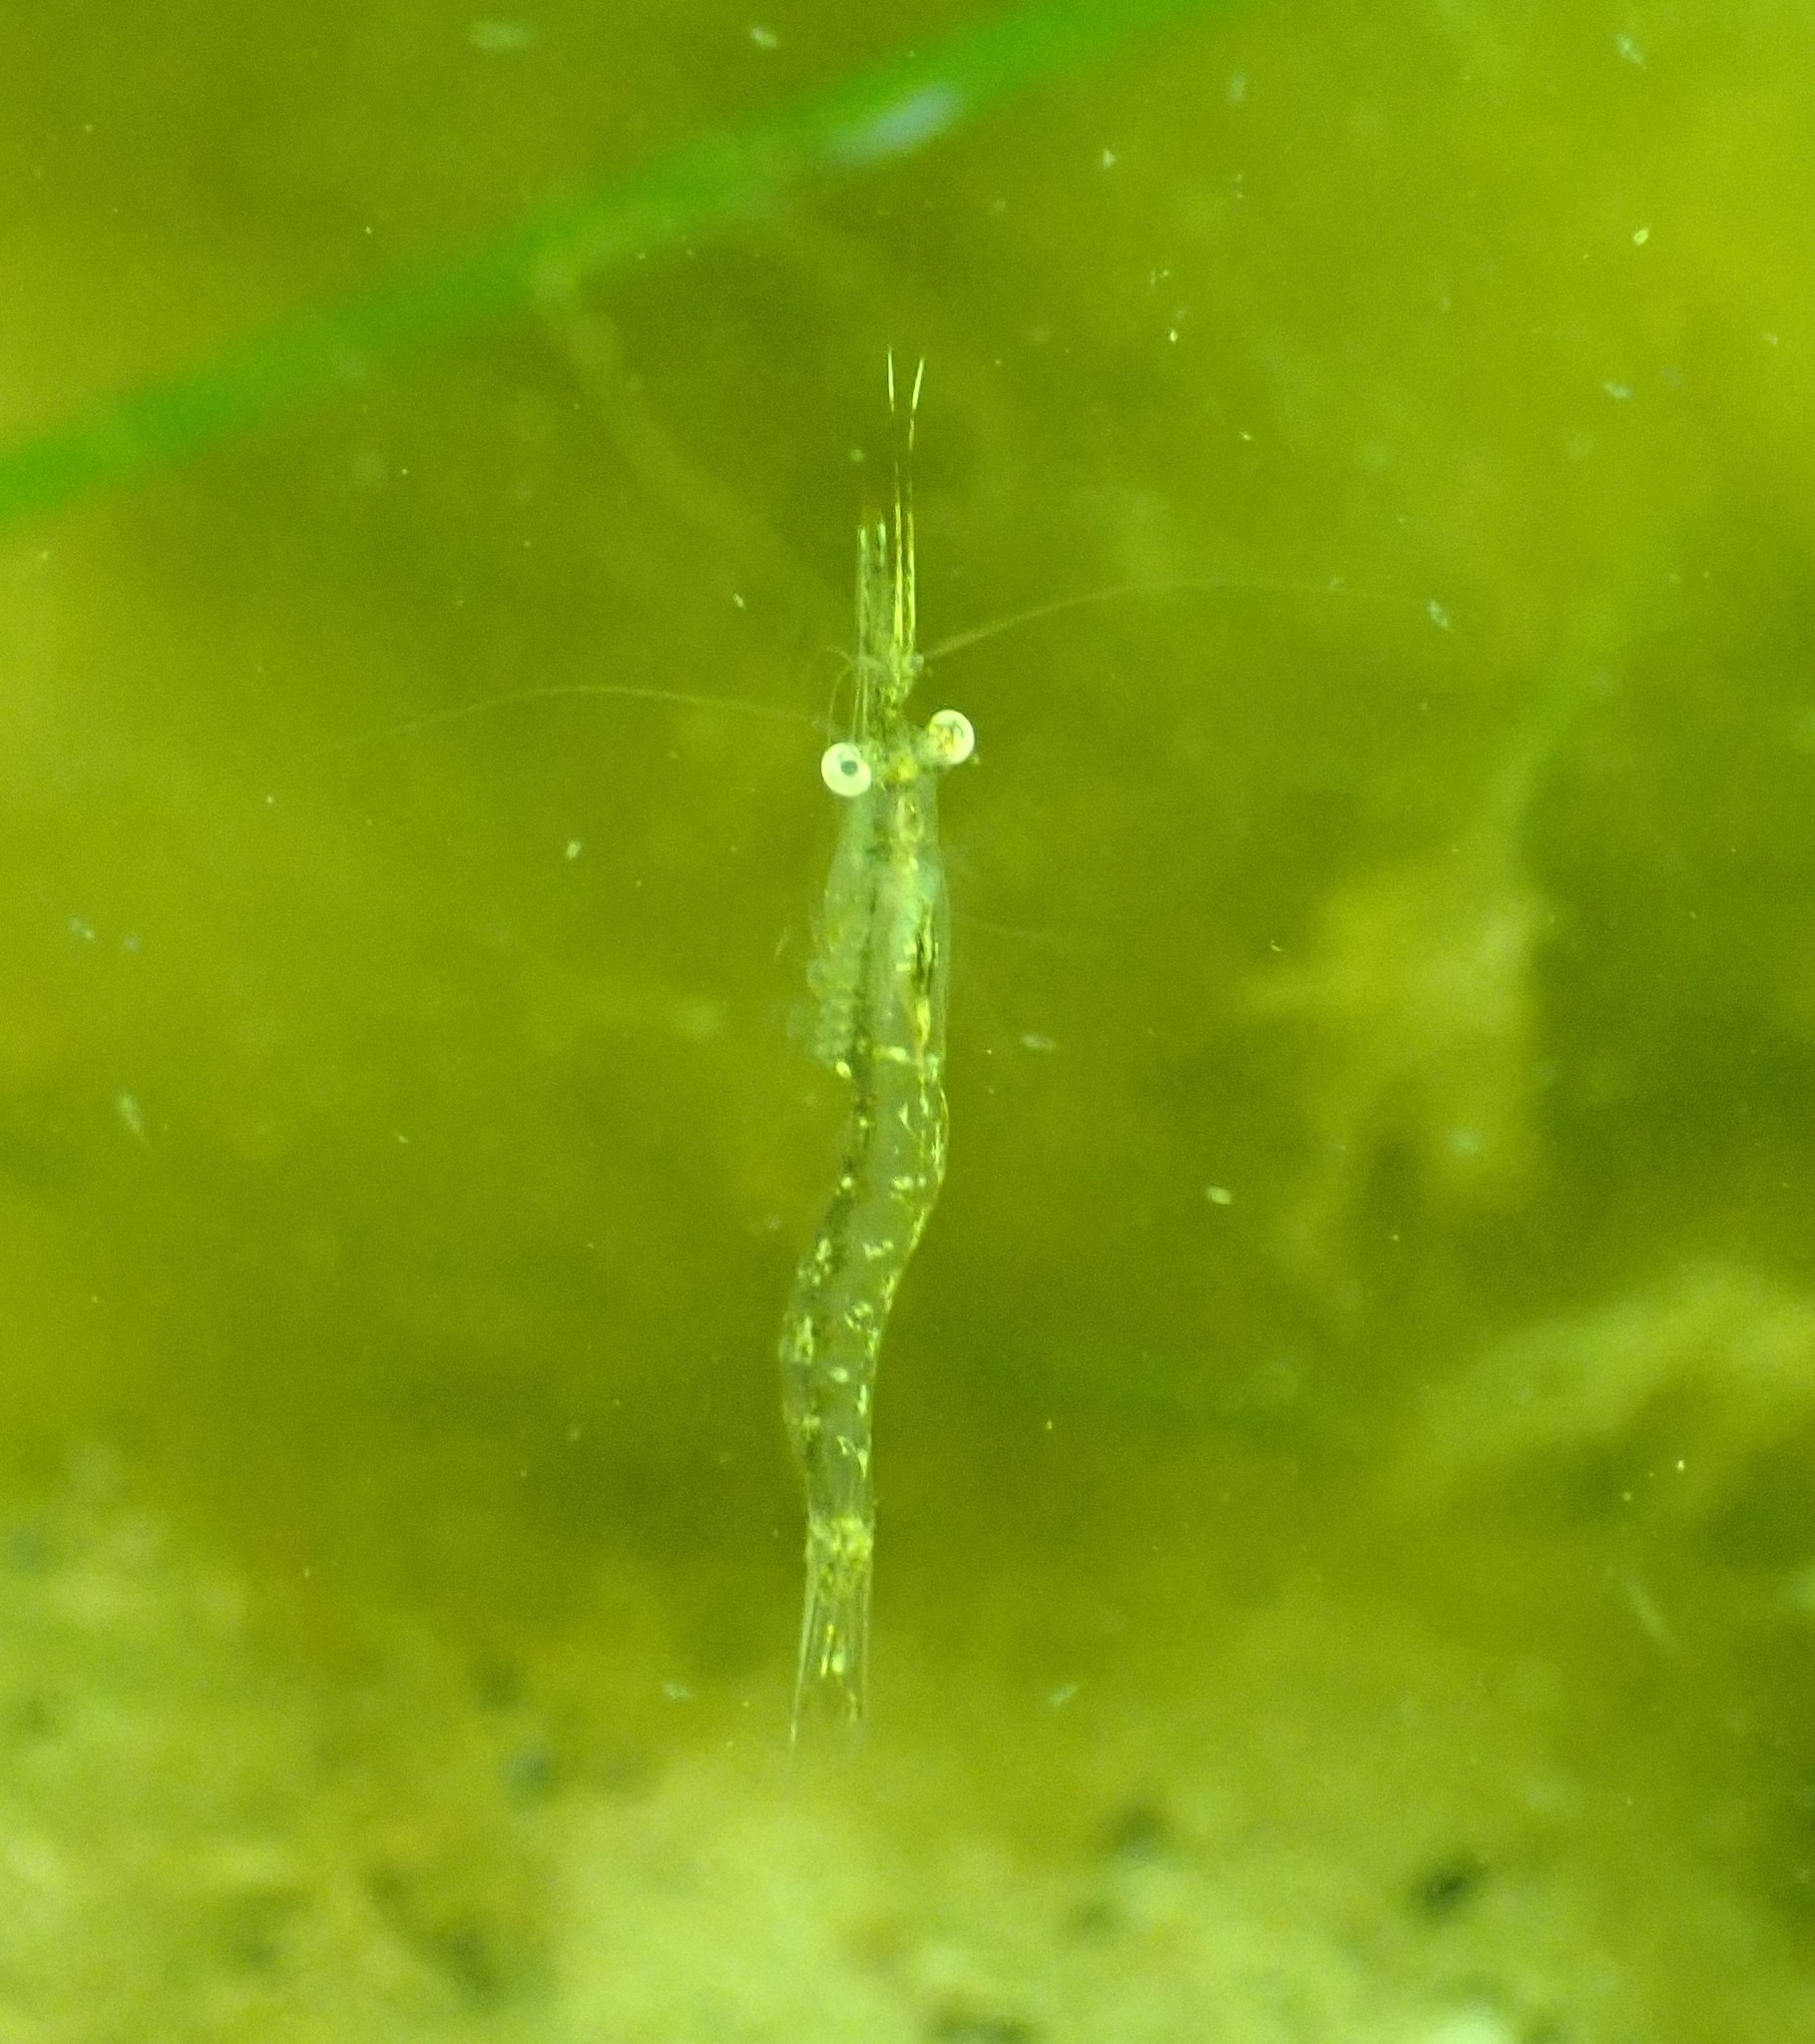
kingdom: Animalia
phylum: Arthropoda
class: Malacostraca
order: Mysida
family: Mysidae
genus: Praunus
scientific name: Praunus flexuosus
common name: Chameleon shrimp
